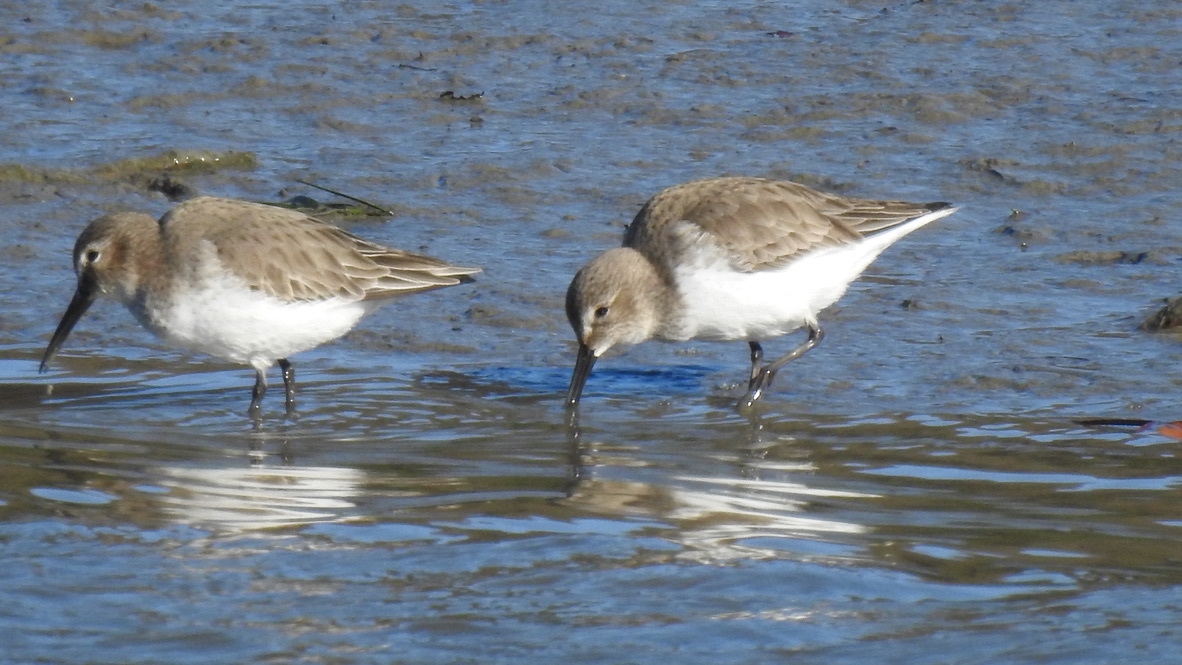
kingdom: Animalia
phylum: Chordata
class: Aves
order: Charadriiformes
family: Scolopacidae
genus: Calidris
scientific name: Calidris alpina
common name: Dunlin
